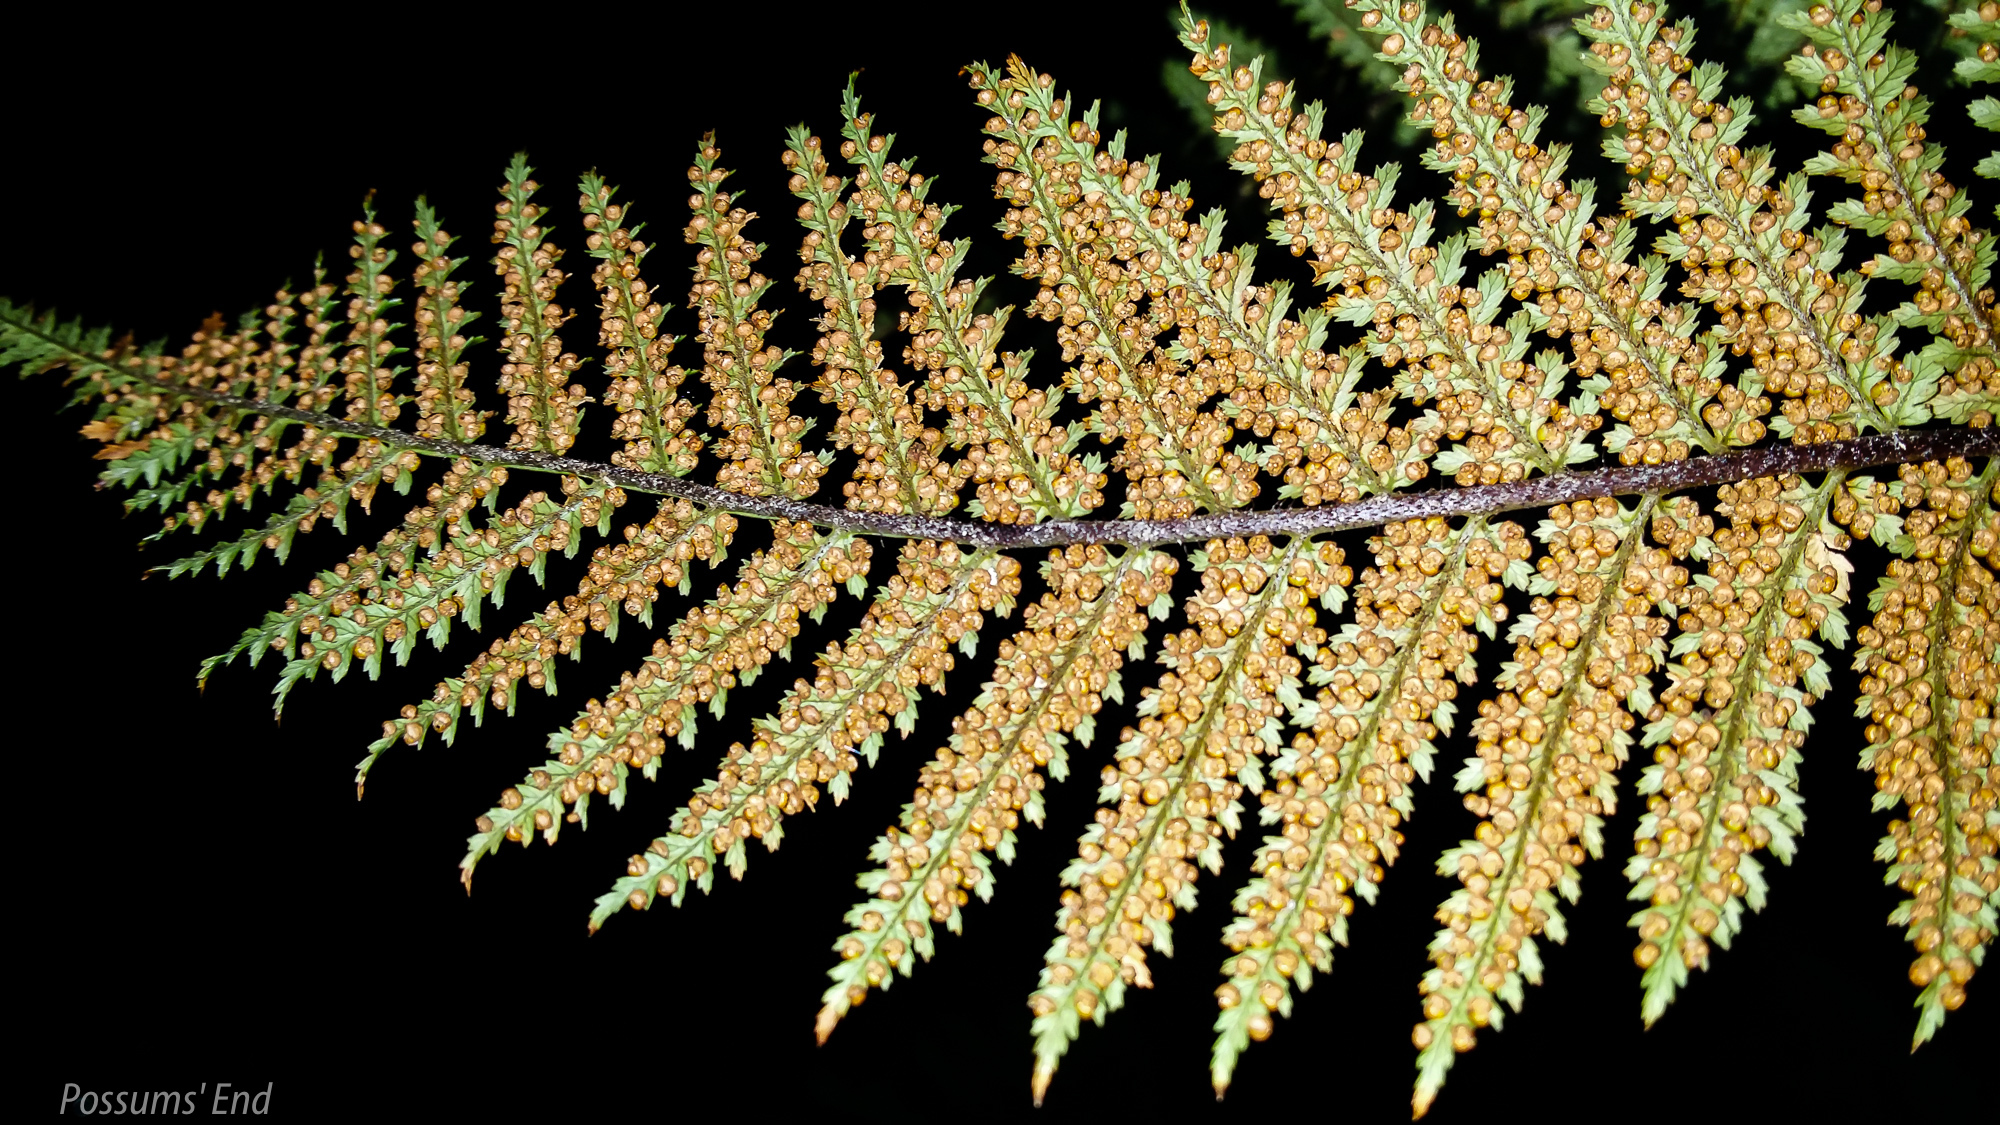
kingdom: Plantae
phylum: Tracheophyta
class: Polypodiopsida
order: Cyatheales
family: Dicksoniaceae
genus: Dicksonia
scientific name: Dicksonia squarrosa
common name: Hard treefern
